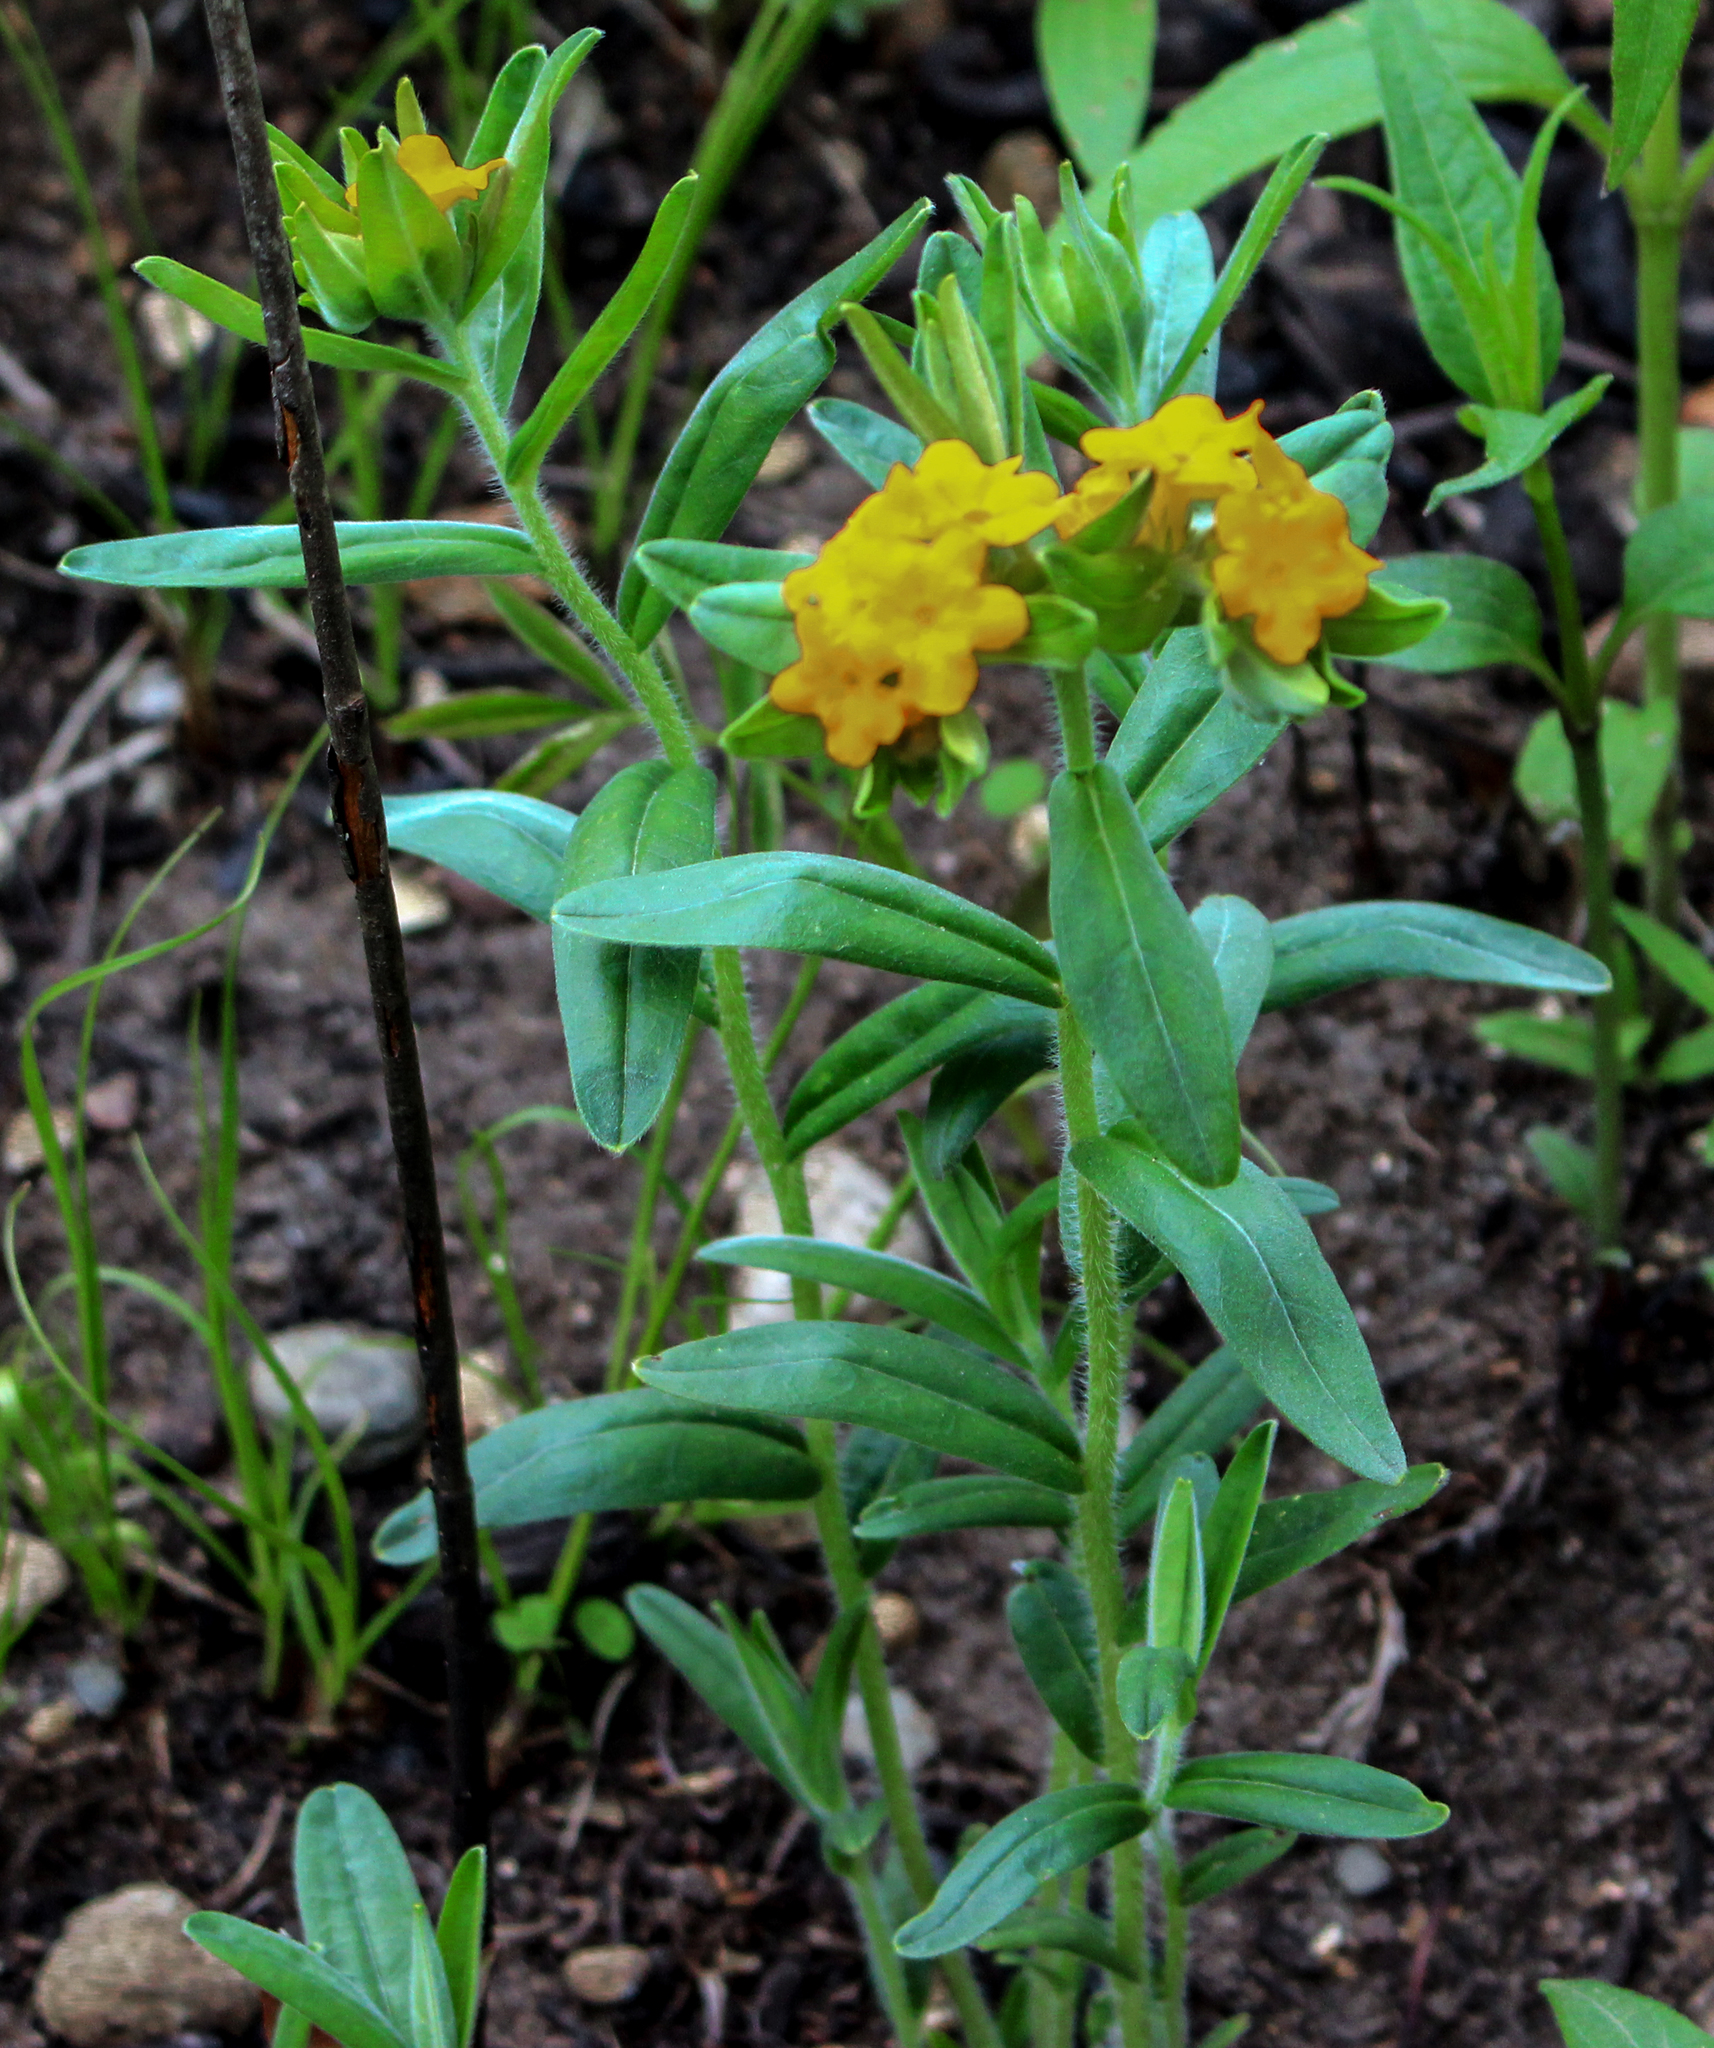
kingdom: Plantae
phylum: Tracheophyta
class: Magnoliopsida
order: Boraginales
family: Boraginaceae
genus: Lithospermum
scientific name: Lithospermum canescens
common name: Hoary puccoon
